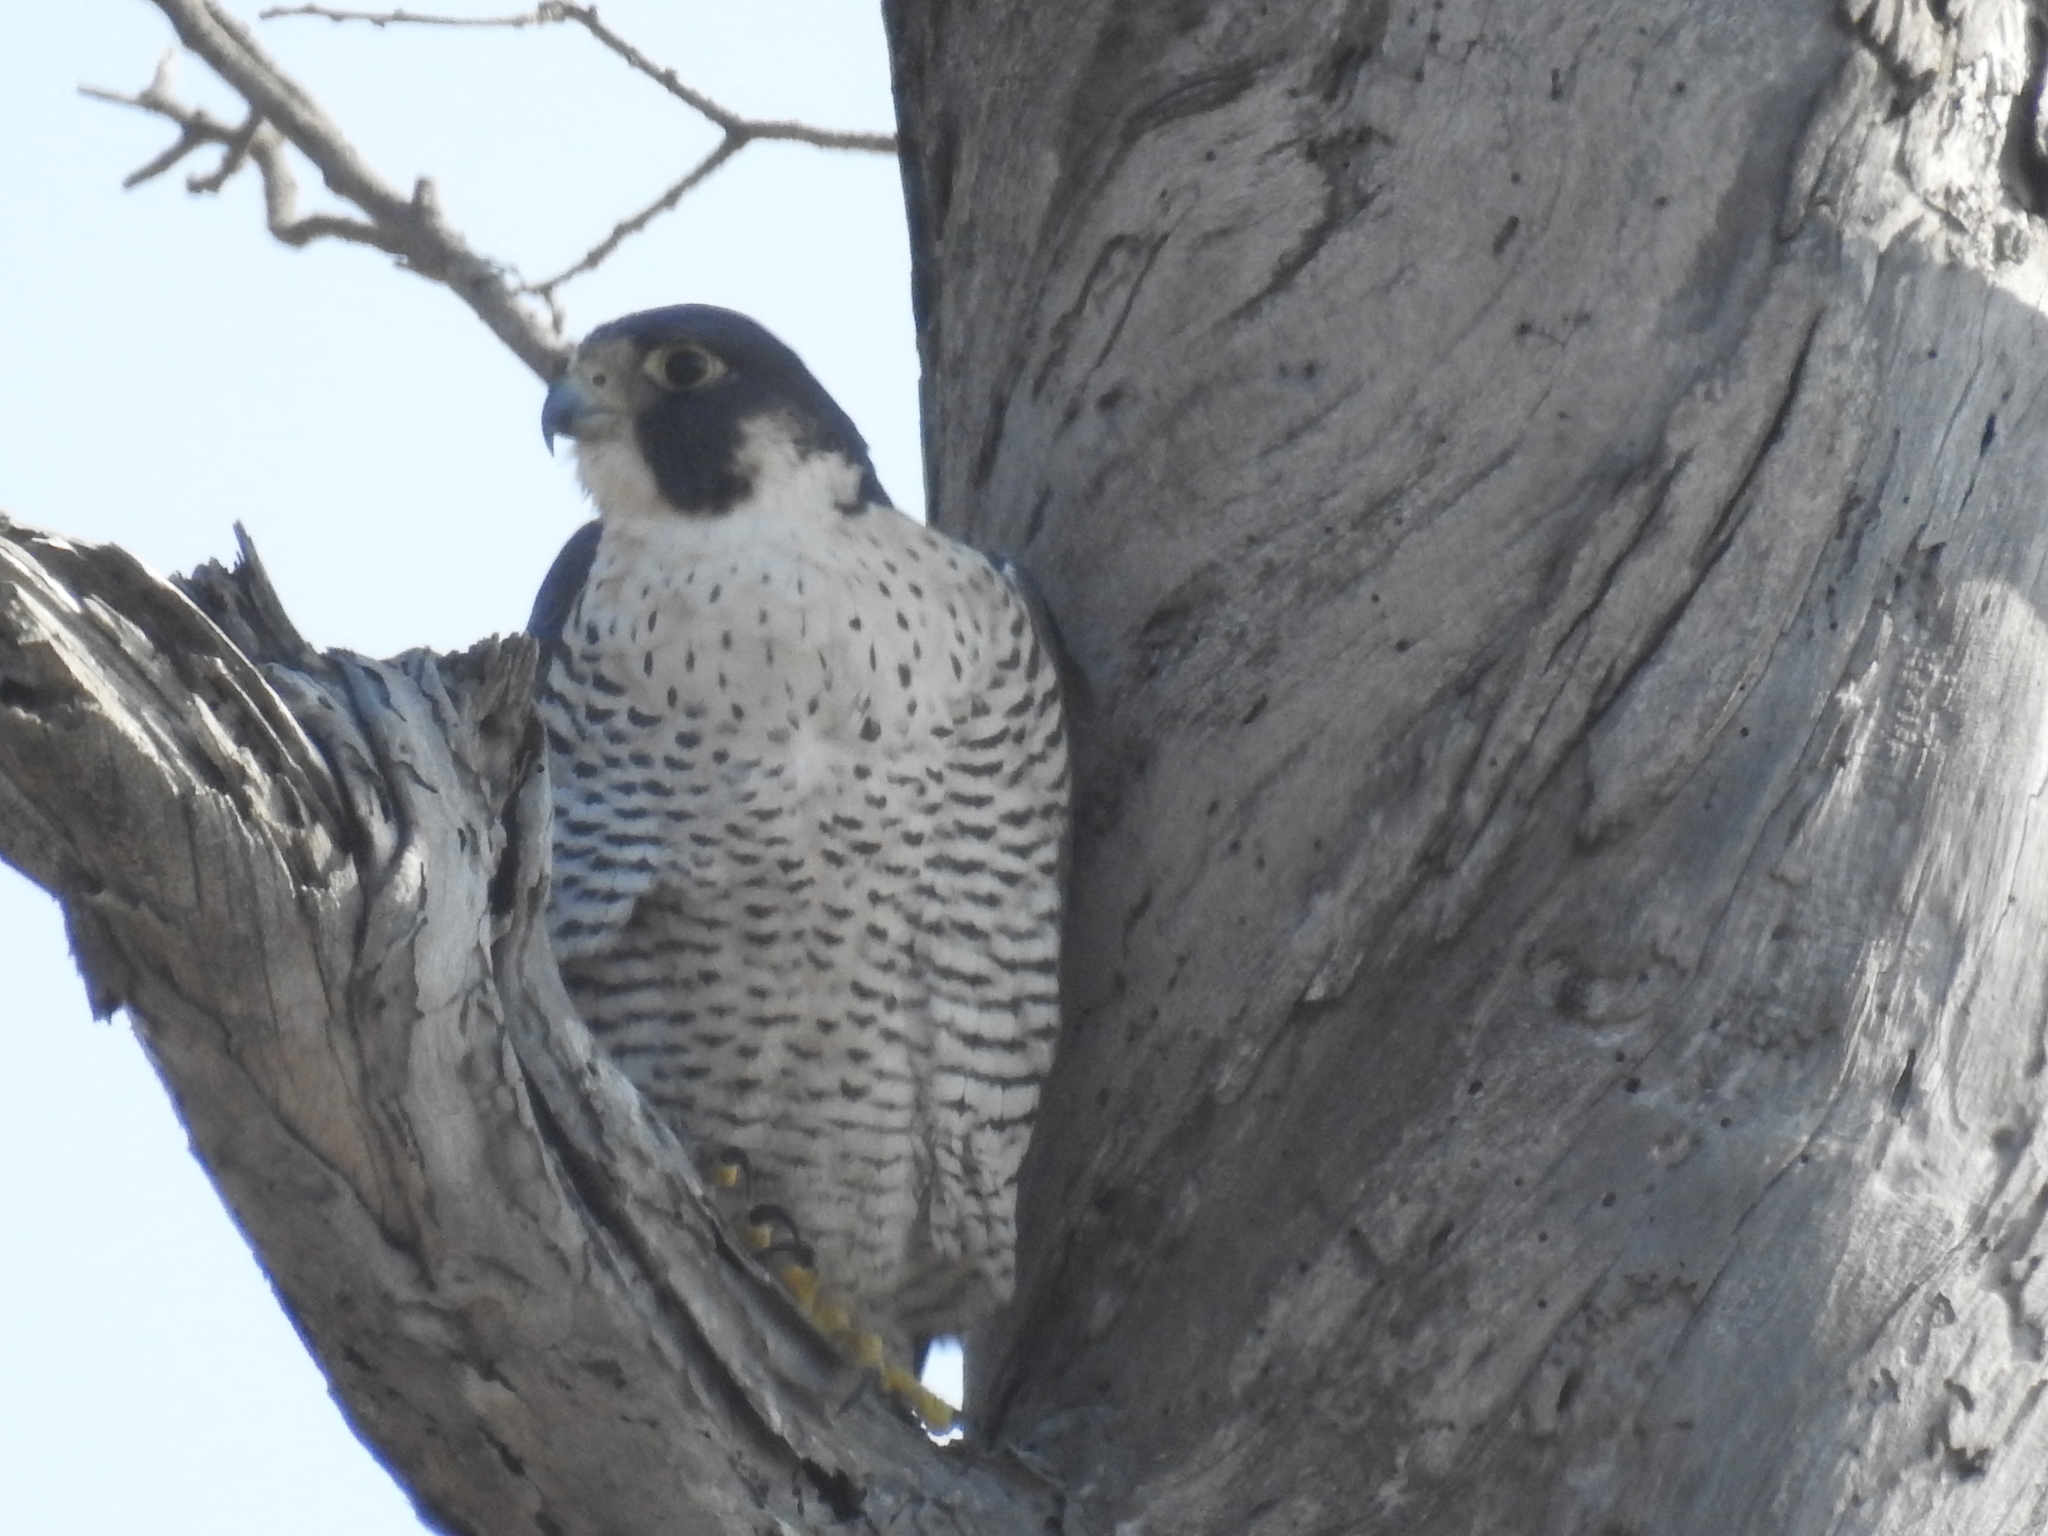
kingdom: Animalia
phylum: Chordata
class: Aves
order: Falconiformes
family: Falconidae
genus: Falco
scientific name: Falco peregrinus
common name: Peregrine falcon
